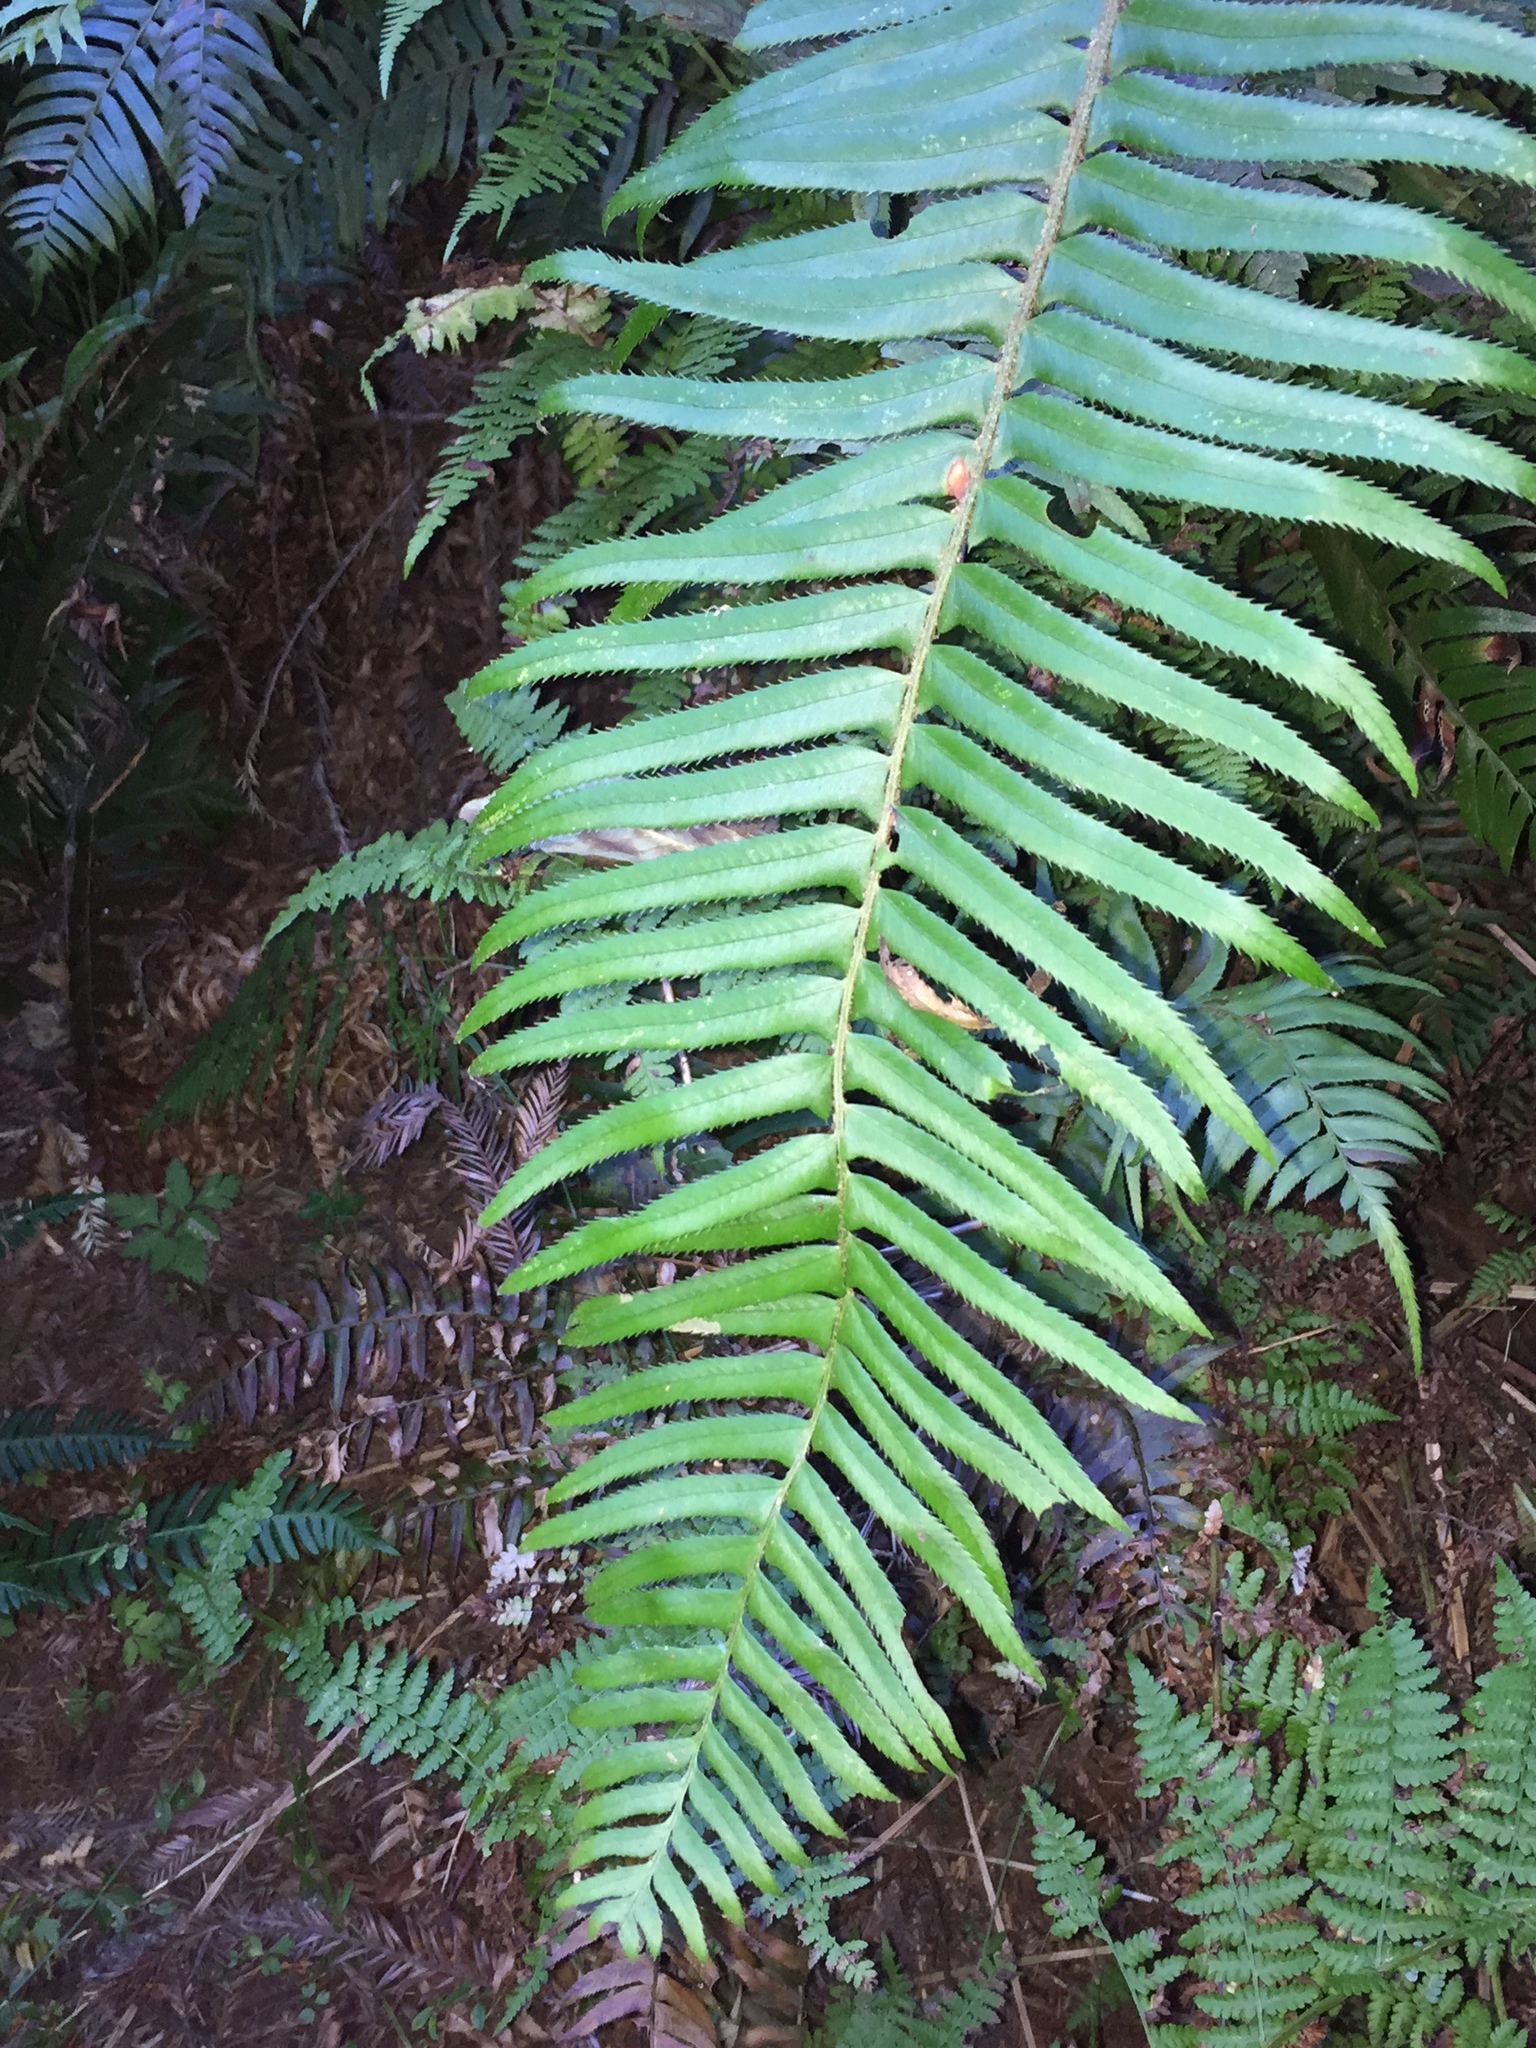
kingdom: Plantae
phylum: Tracheophyta
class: Polypodiopsida
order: Polypodiales
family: Dryopteridaceae
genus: Polystichum
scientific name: Polystichum munitum
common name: Western sword-fern
